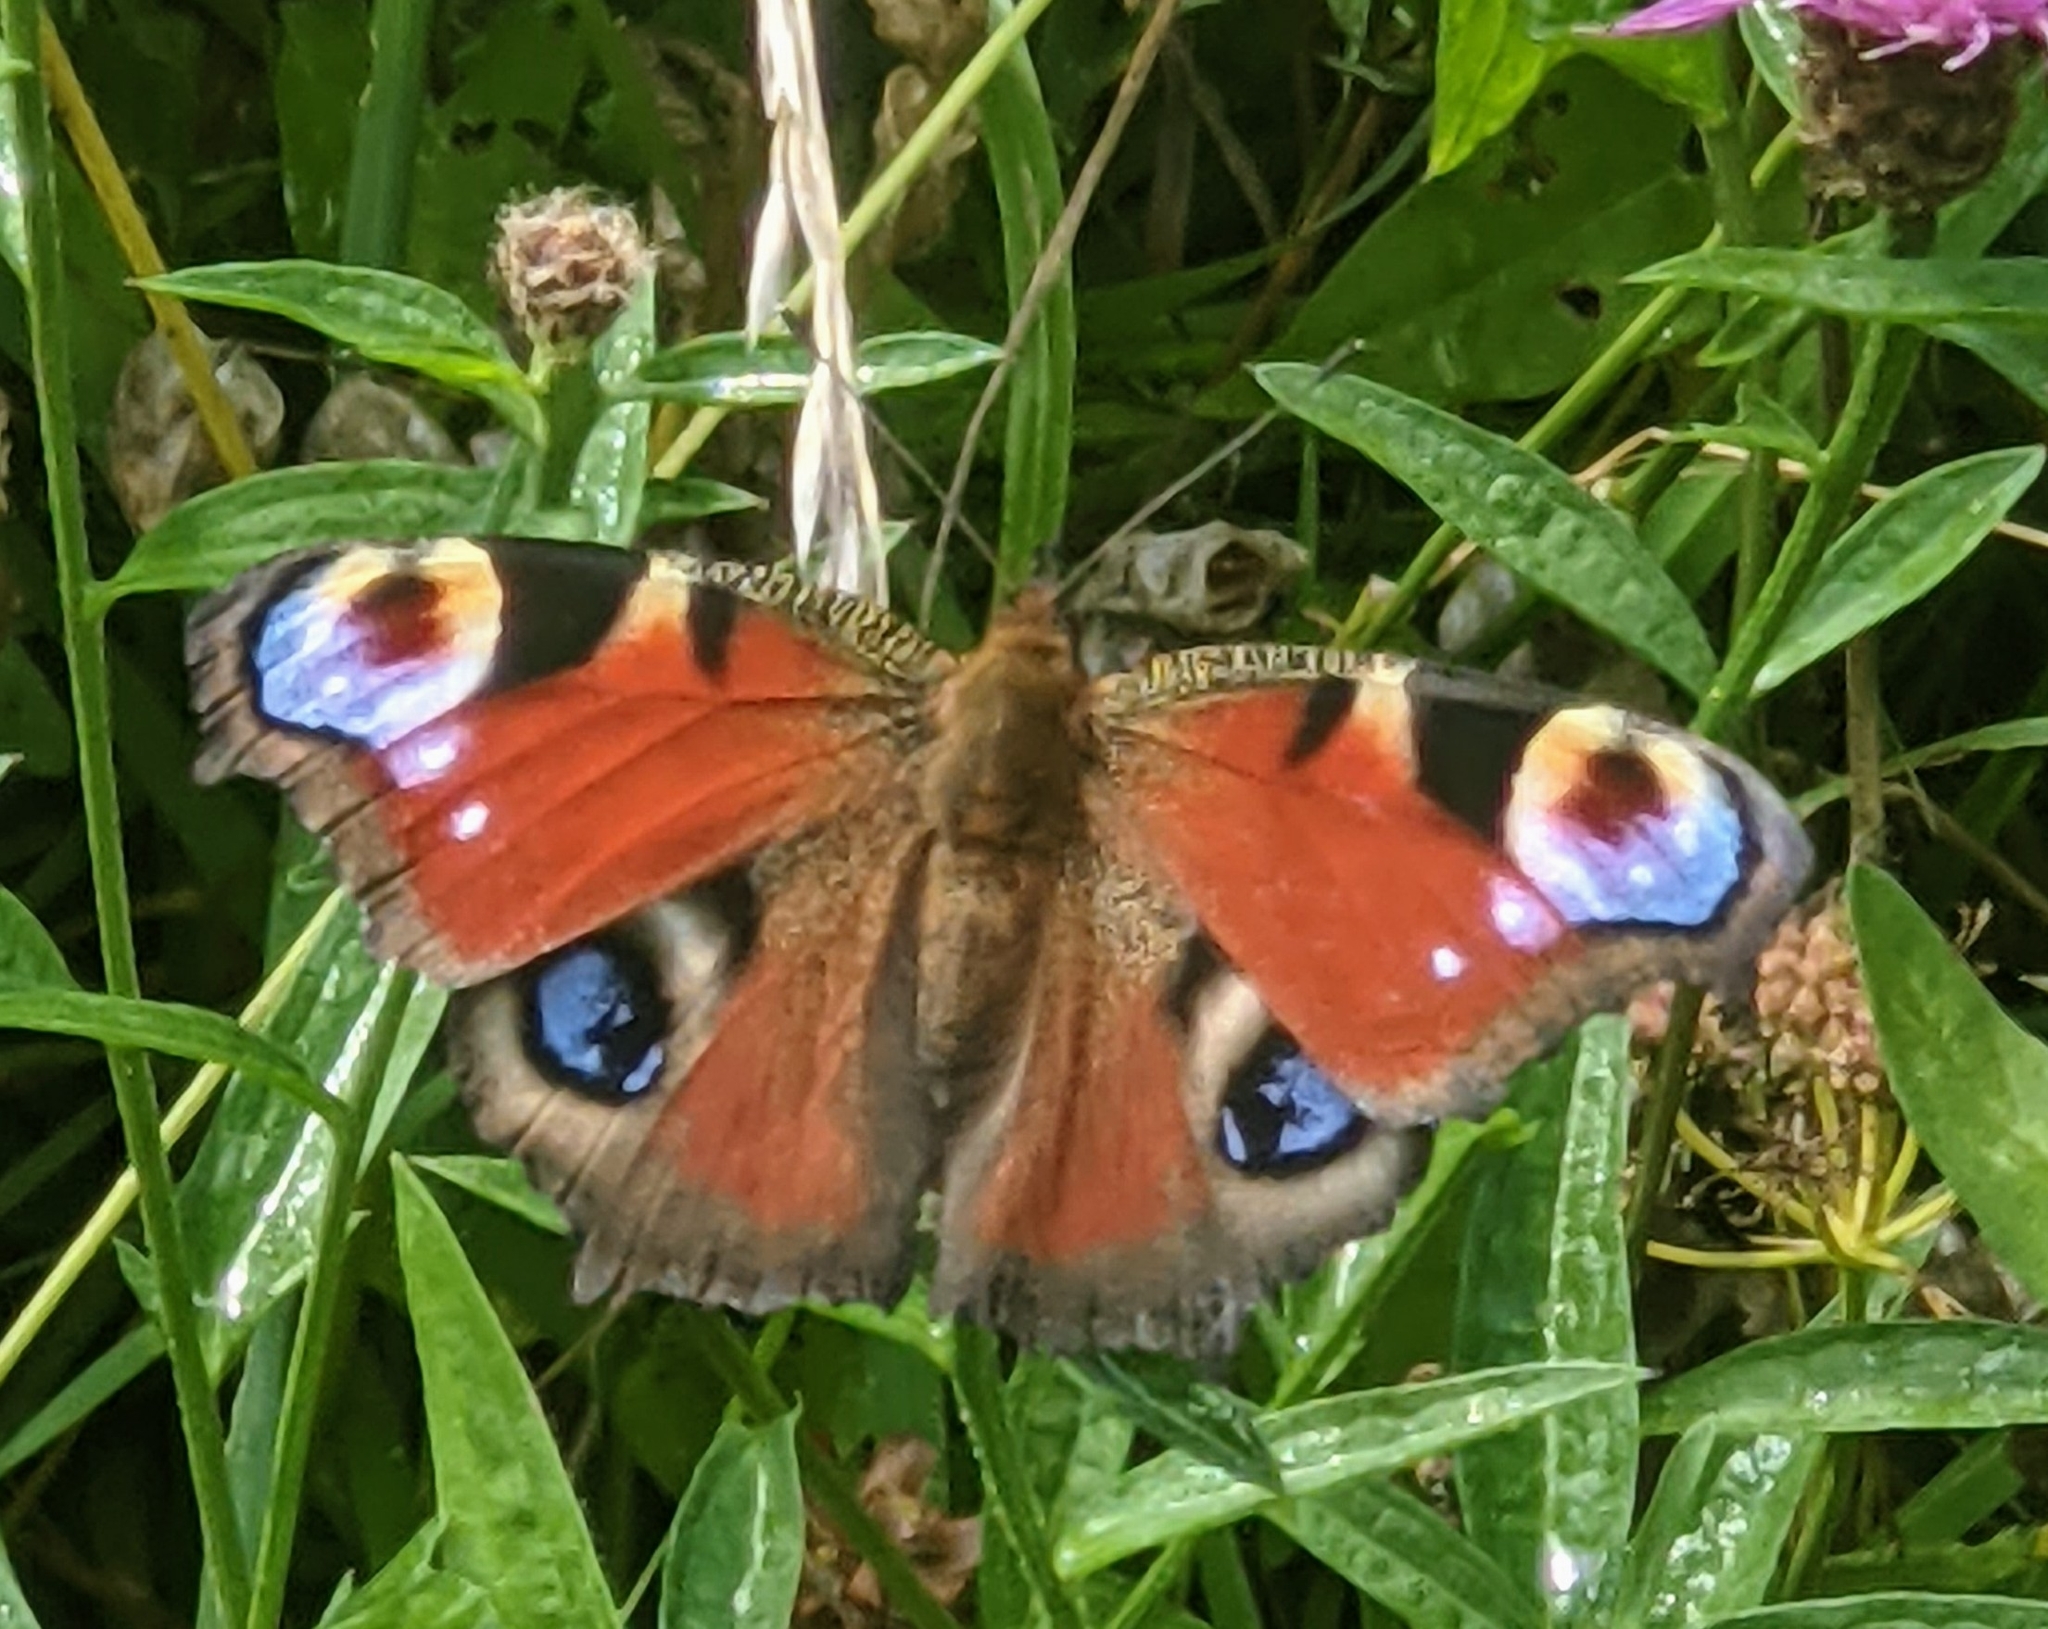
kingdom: Animalia
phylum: Arthropoda
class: Insecta
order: Lepidoptera
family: Nymphalidae
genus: Aglais
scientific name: Aglais io
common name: Peacock
